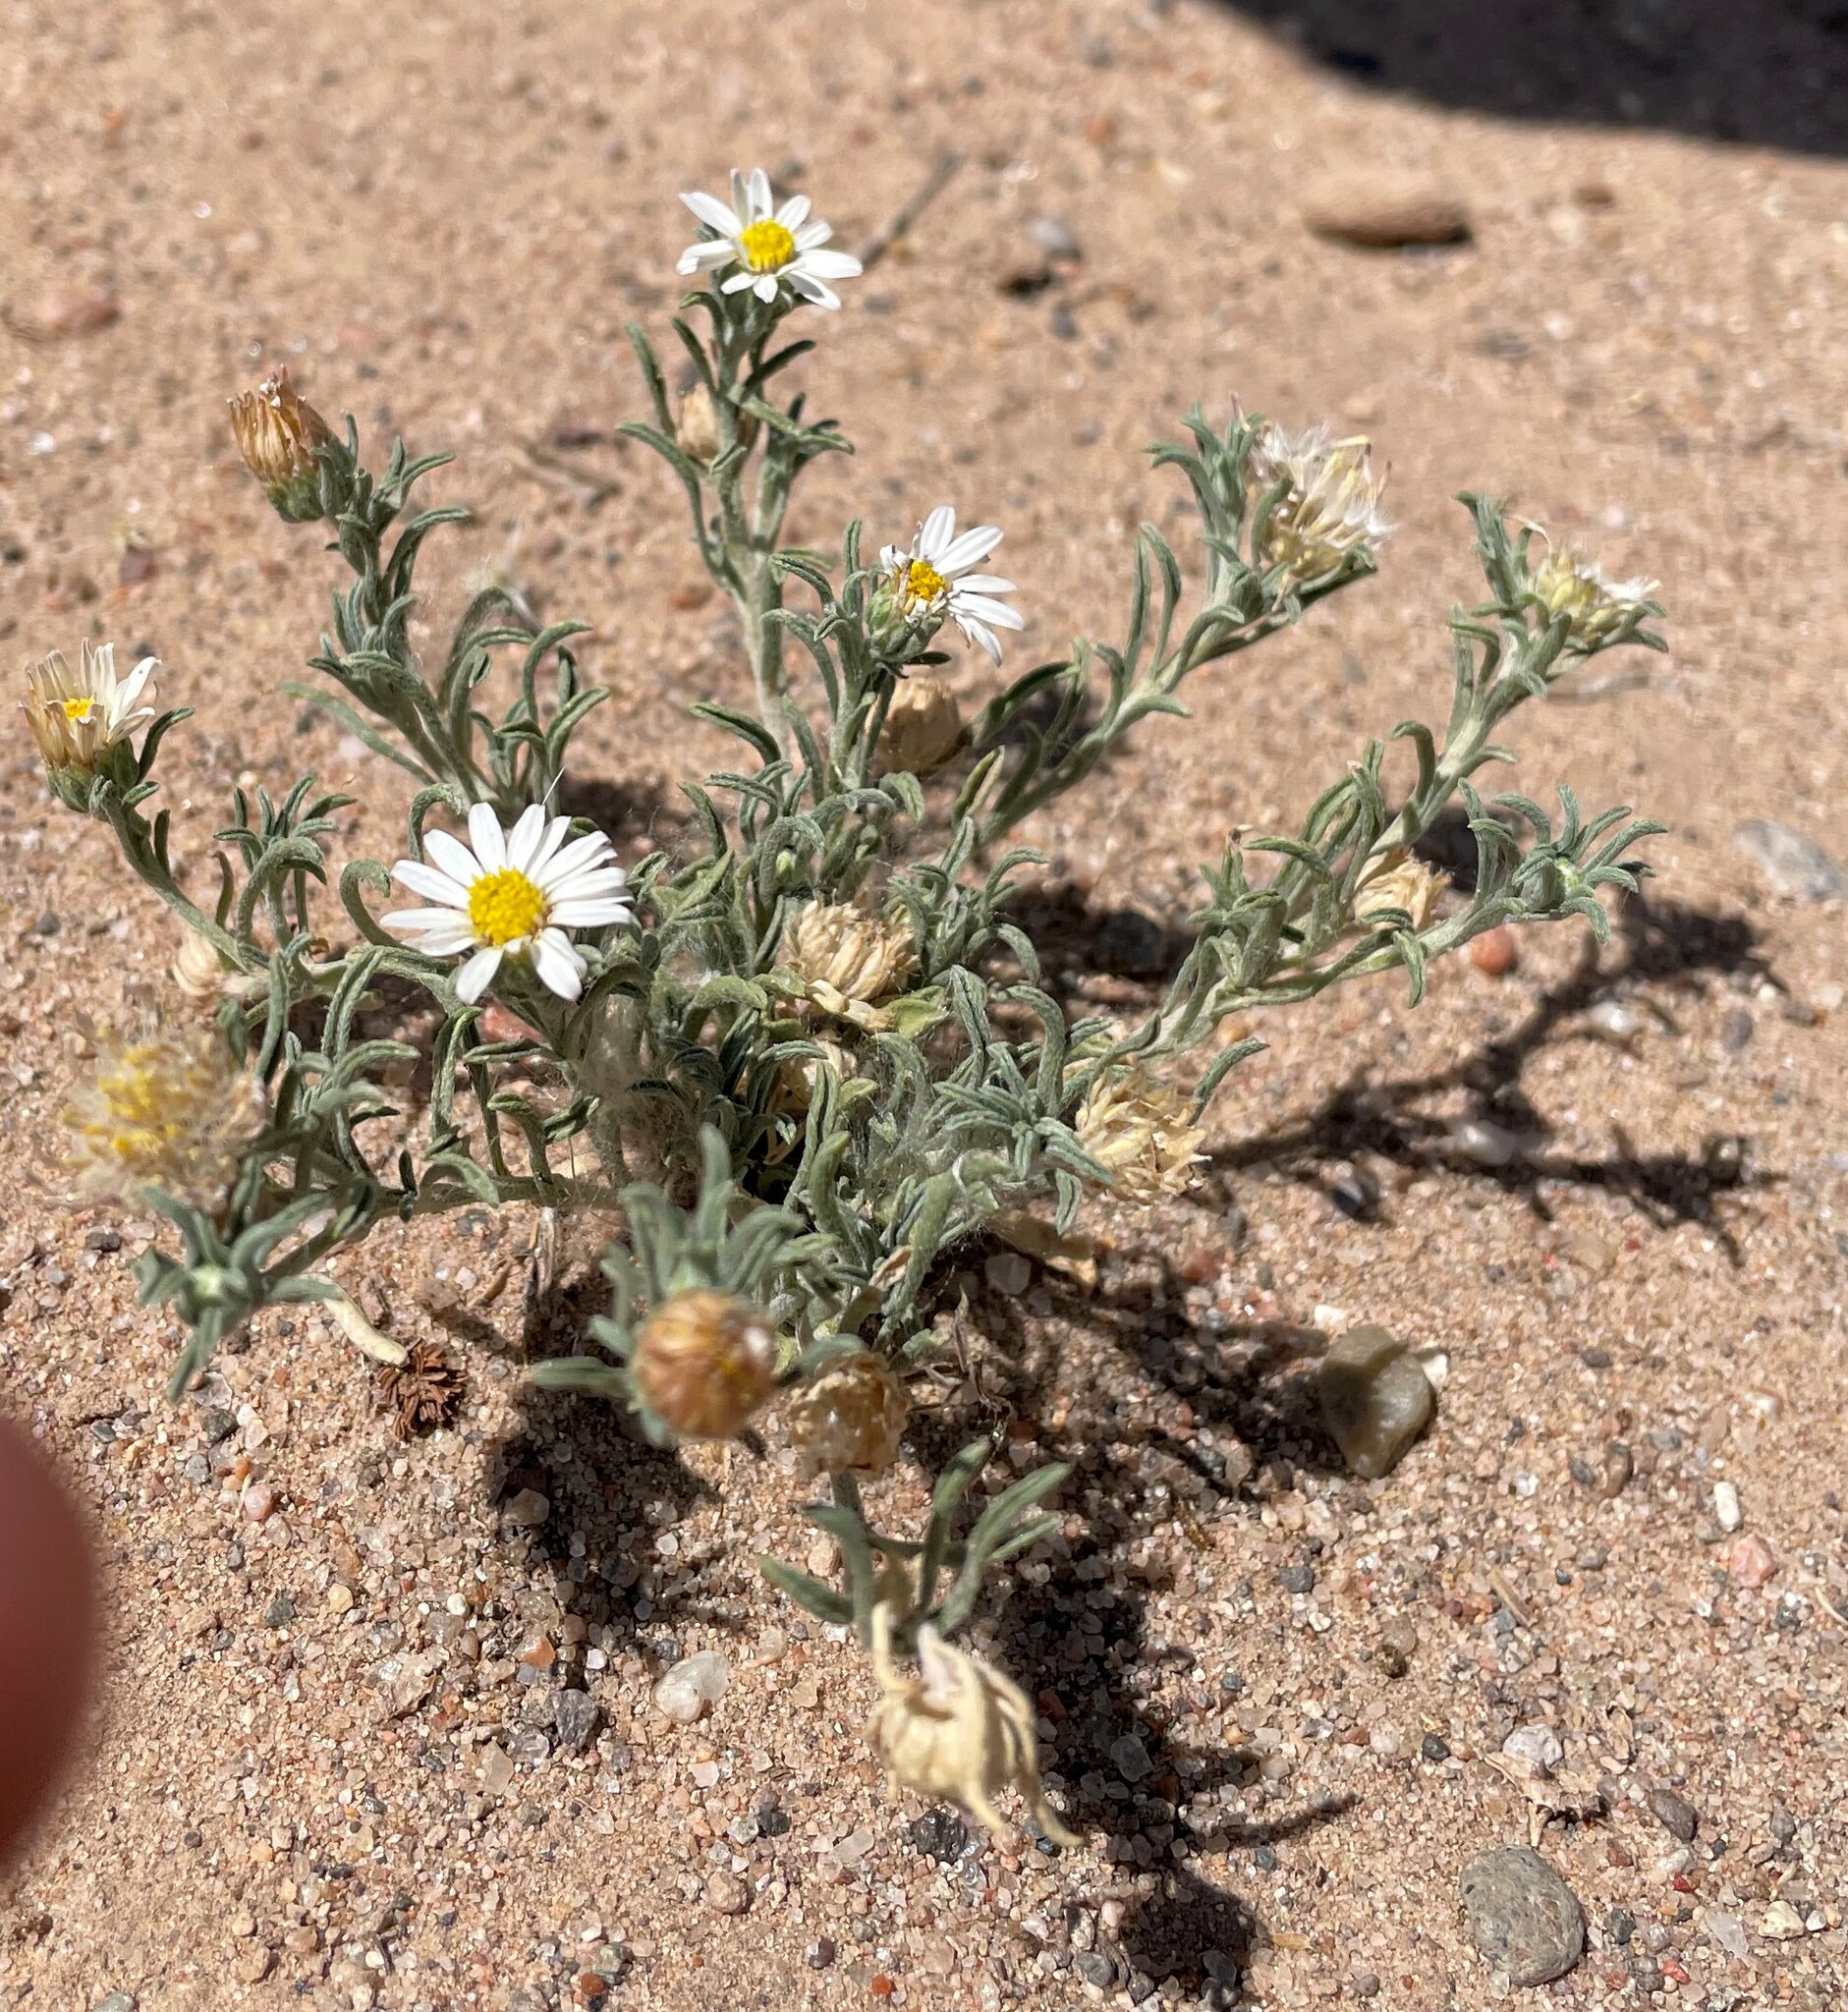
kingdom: Plantae
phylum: Tracheophyta
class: Magnoliopsida
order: Asterales
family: Asteraceae
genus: Chaetopappa
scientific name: Chaetopappa ericoides
